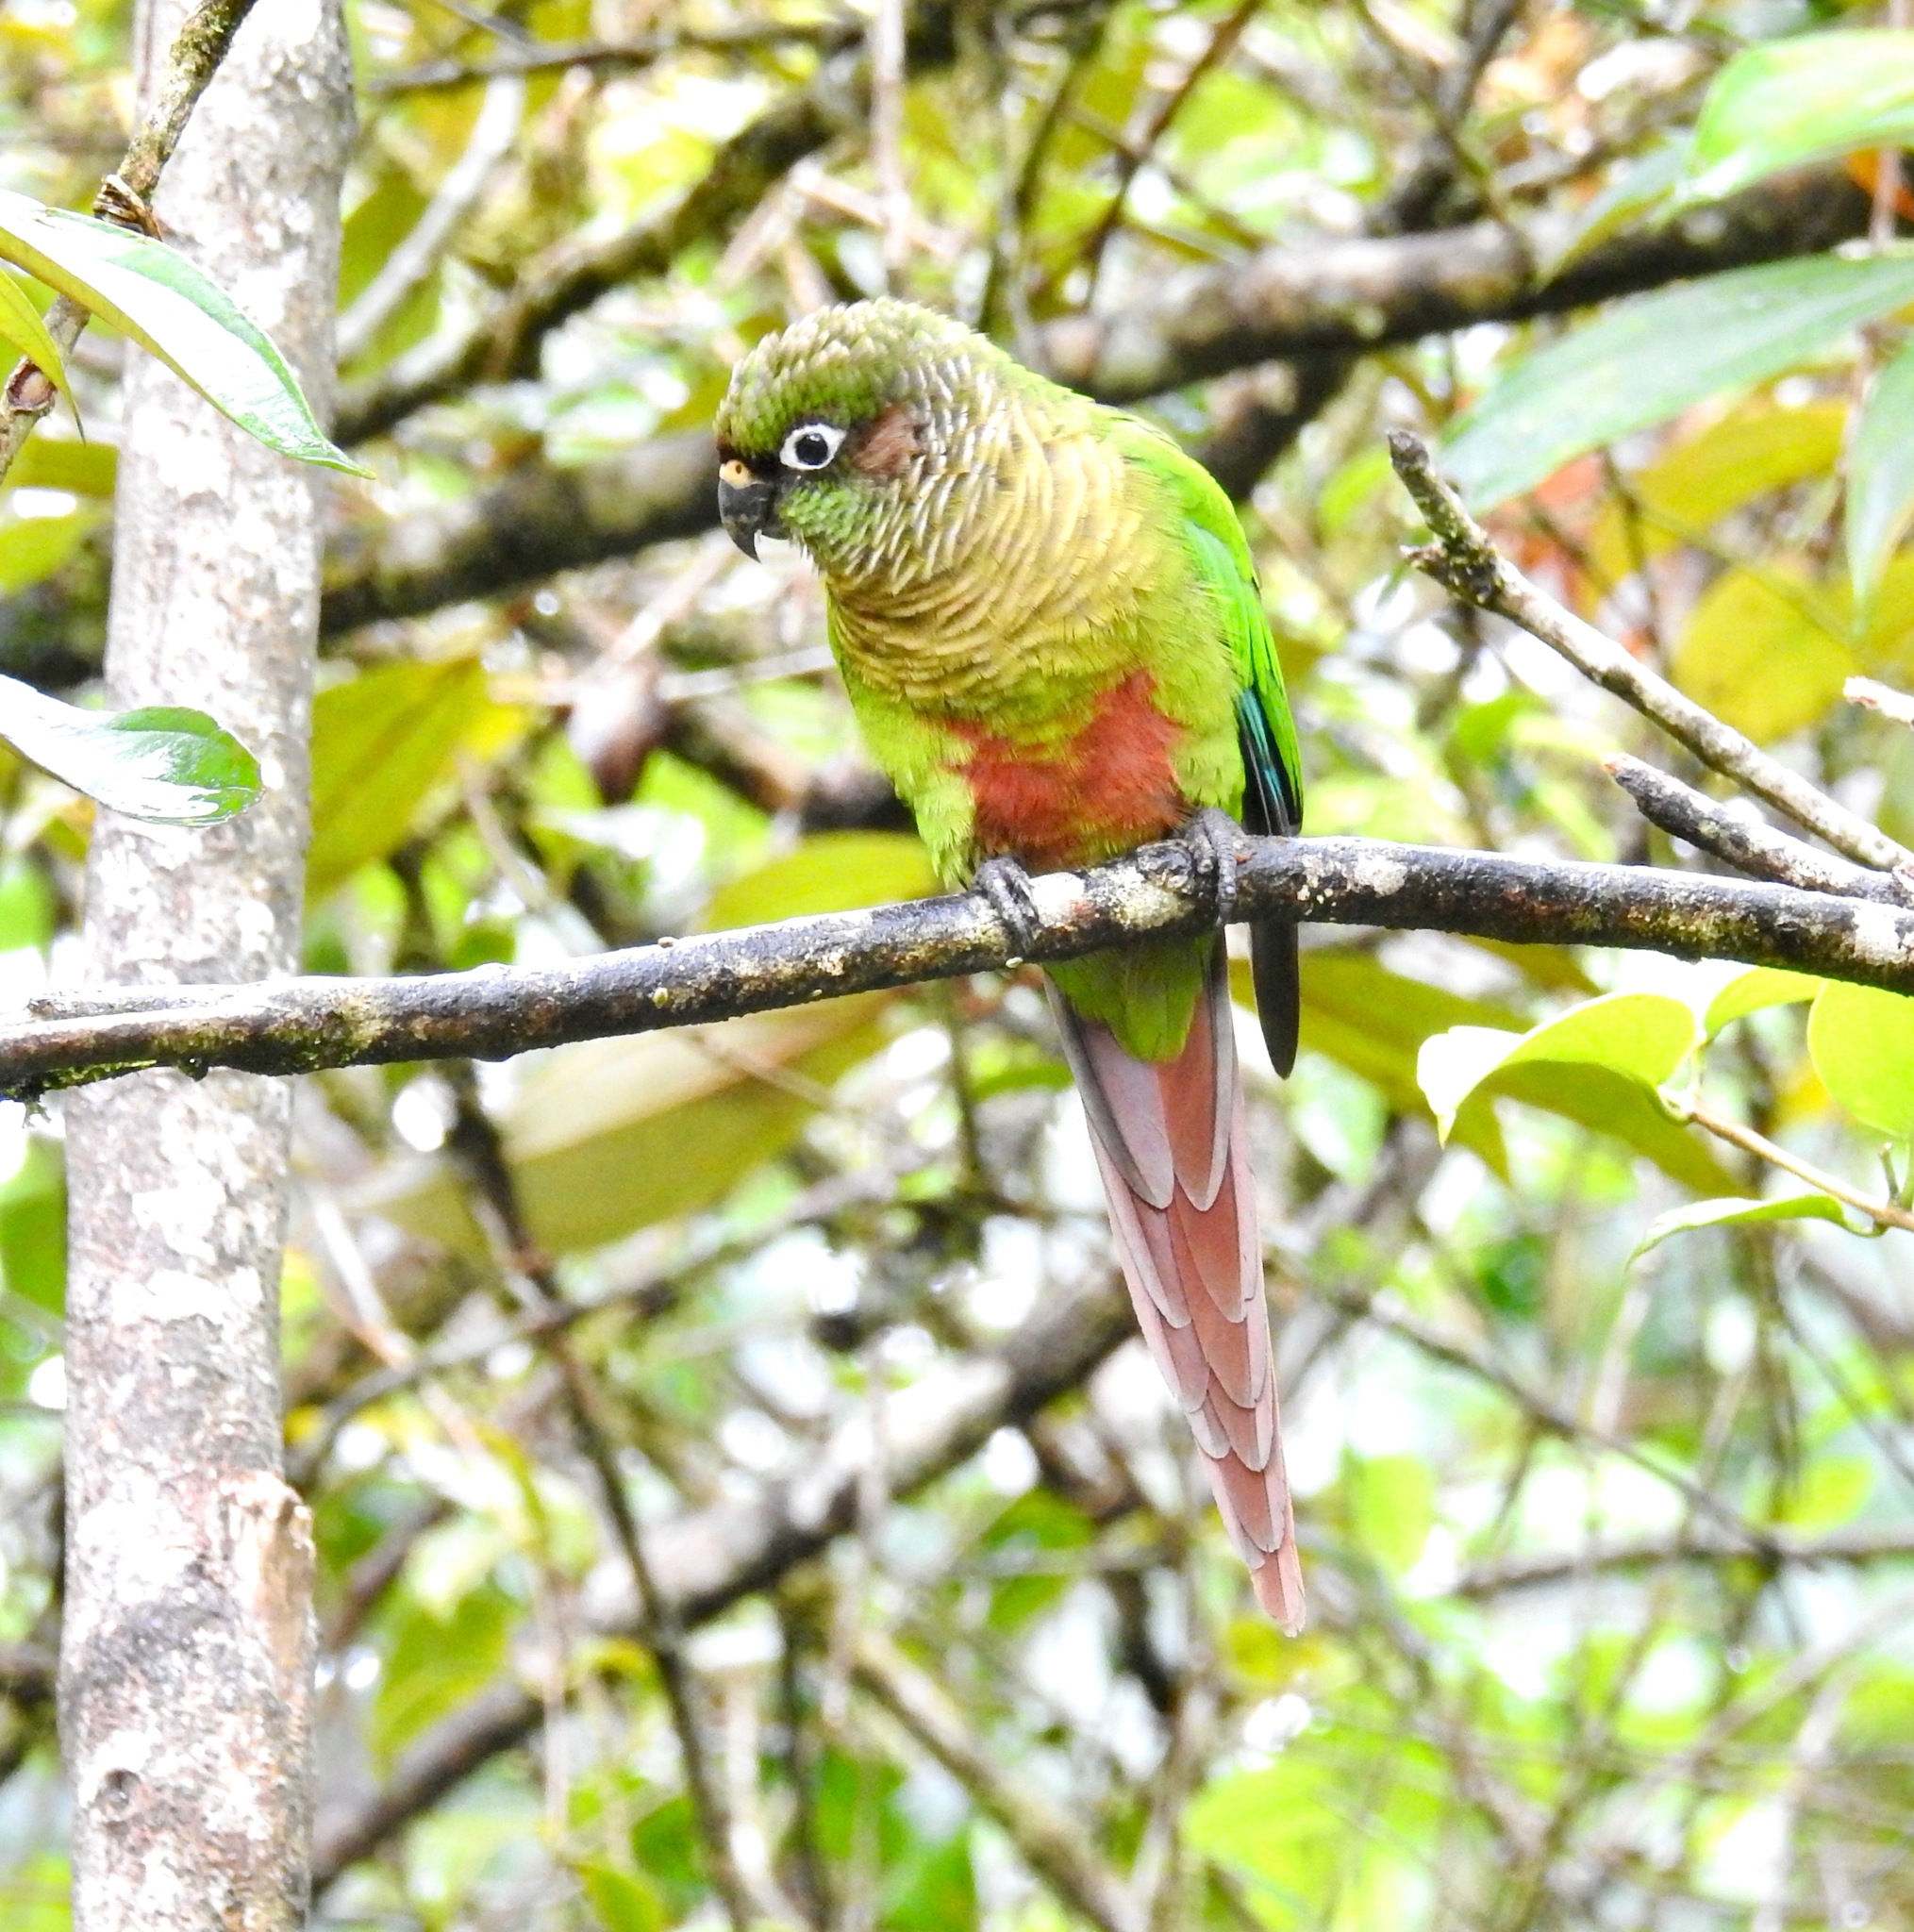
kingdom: Animalia
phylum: Chordata
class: Aves
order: Psittaciformes
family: Psittacidae
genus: Pyrrhura
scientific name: Pyrrhura frontalis
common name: Maroon-bellied parakeet
